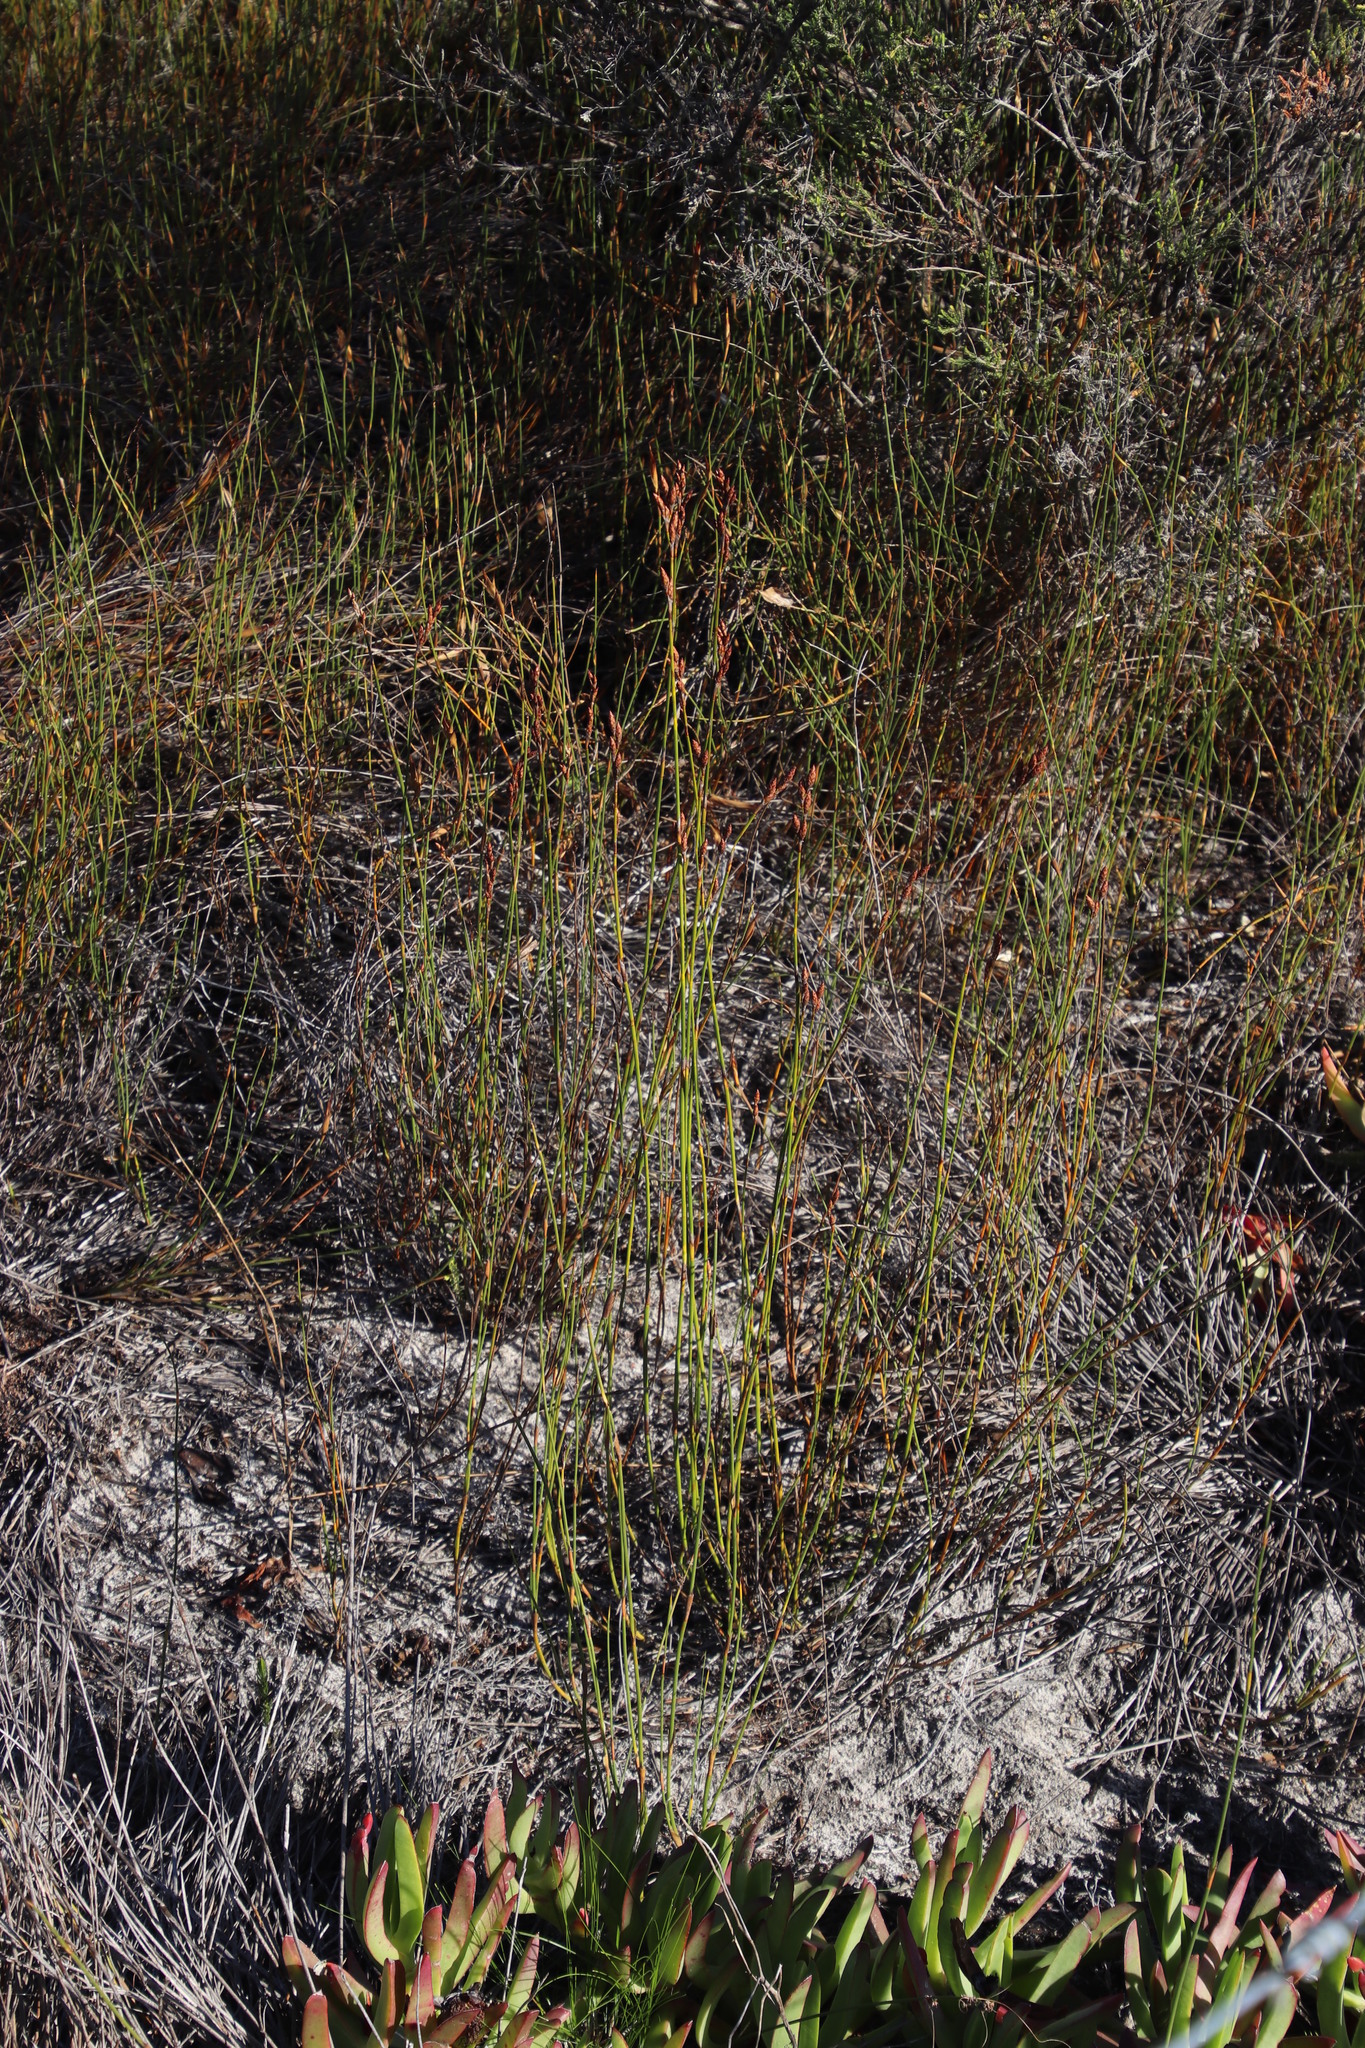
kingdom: Plantae
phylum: Tracheophyta
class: Liliopsida
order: Poales
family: Restionaceae
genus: Restio
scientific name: Restio bifurcus
